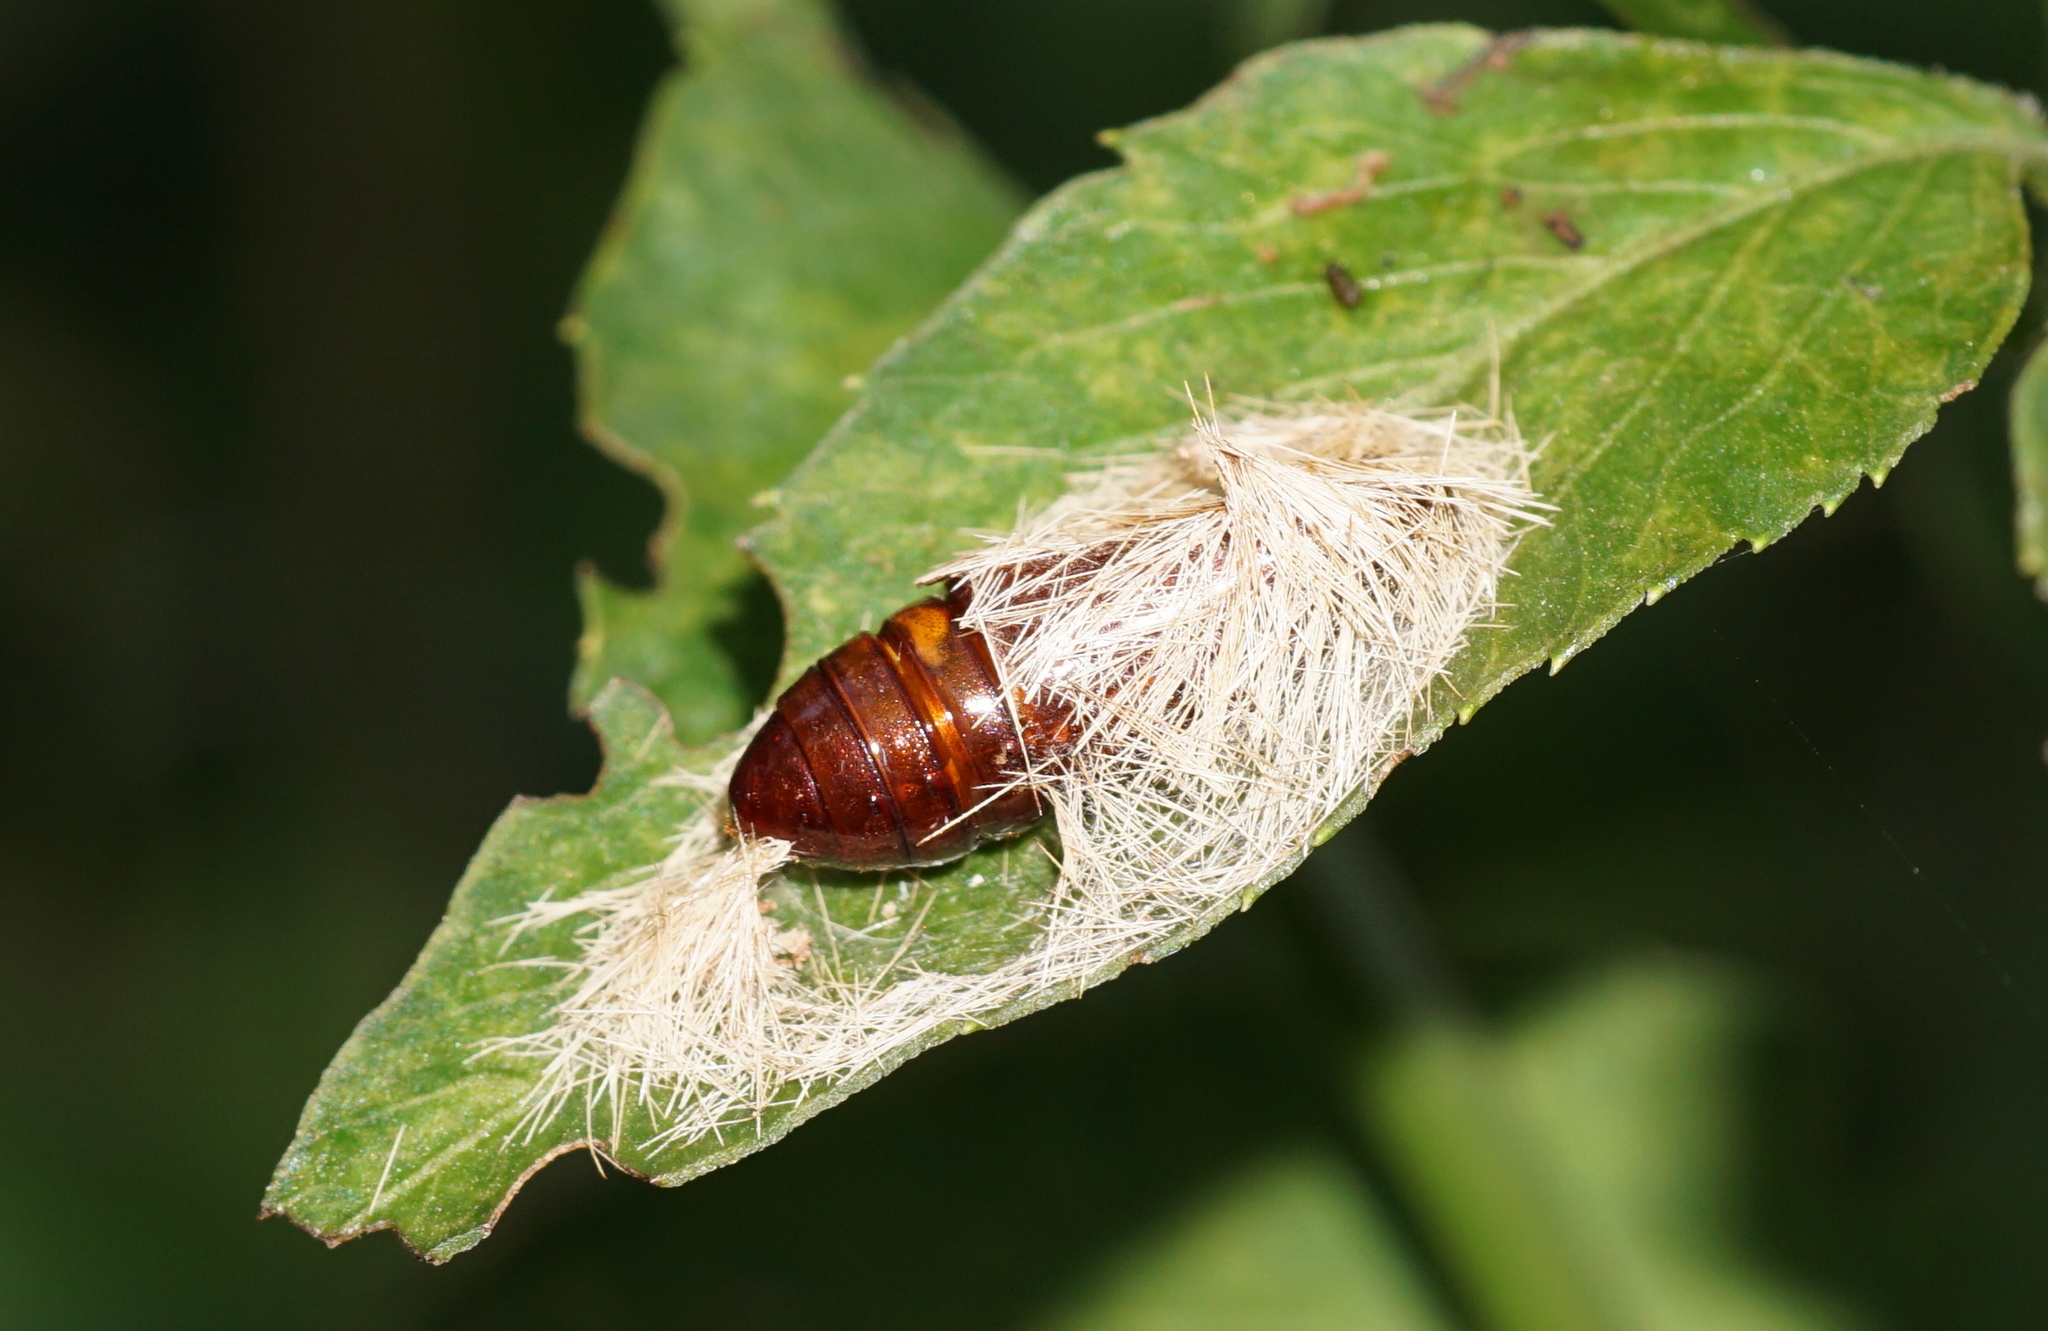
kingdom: Animalia
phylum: Arthropoda
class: Insecta
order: Lepidoptera
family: Erebidae
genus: Lymire
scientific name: Lymire edwardsii
